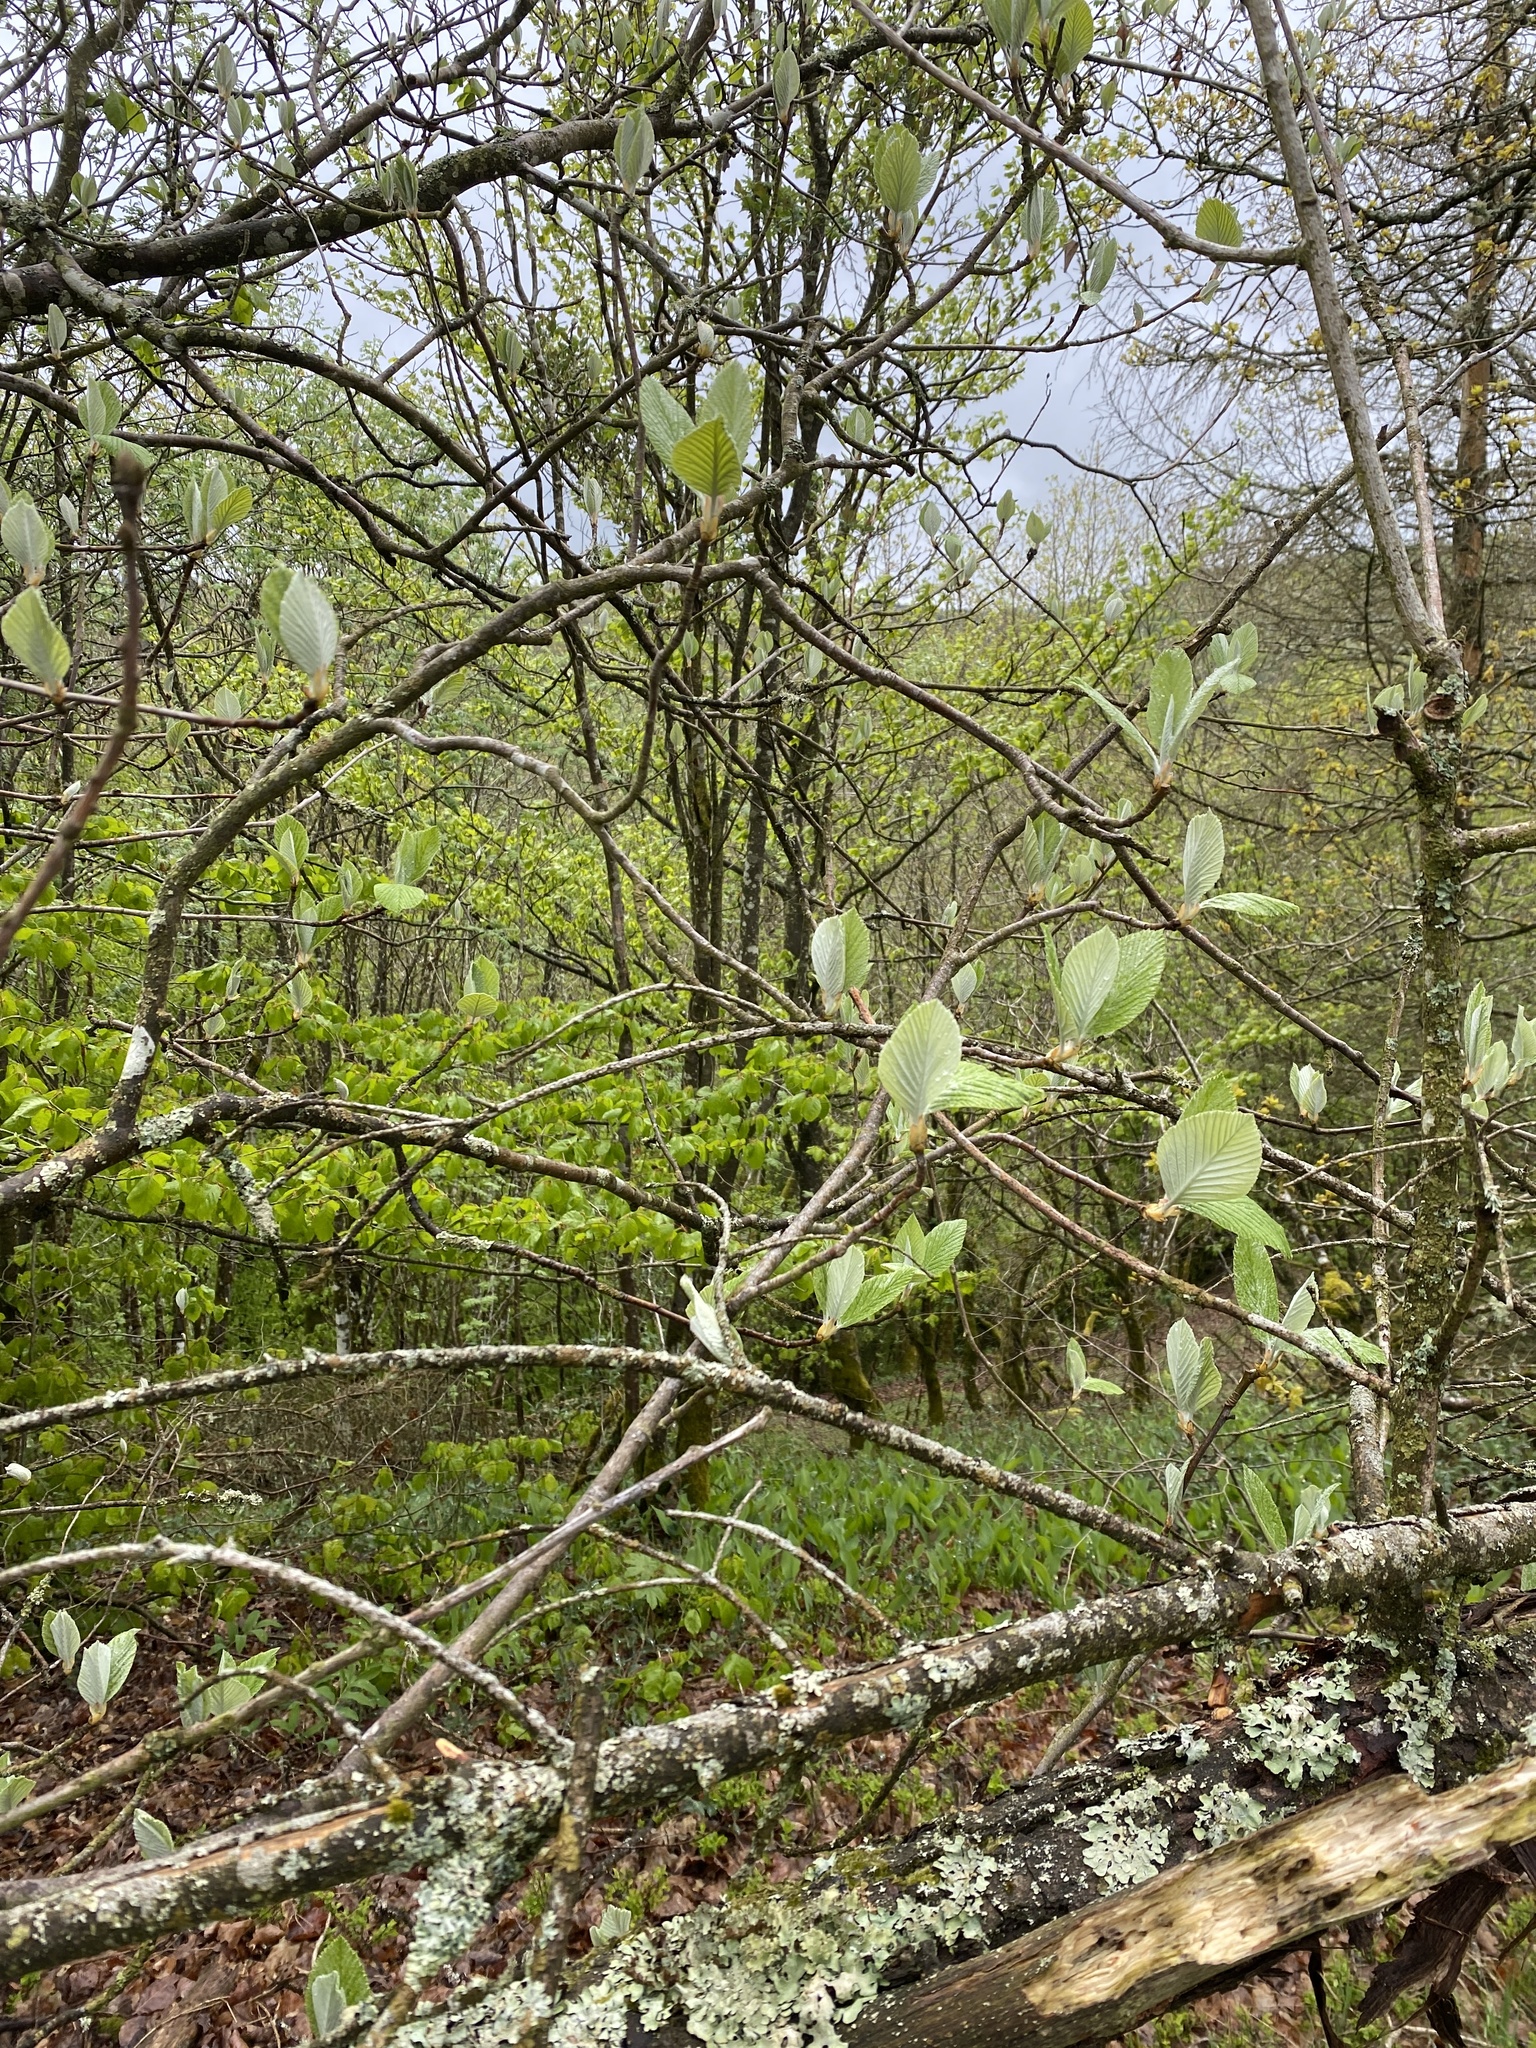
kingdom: Plantae
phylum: Tracheophyta
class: Magnoliopsida
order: Dipsacales
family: Viburnaceae
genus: Viburnum
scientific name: Viburnum lantana
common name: Wayfaring tree
